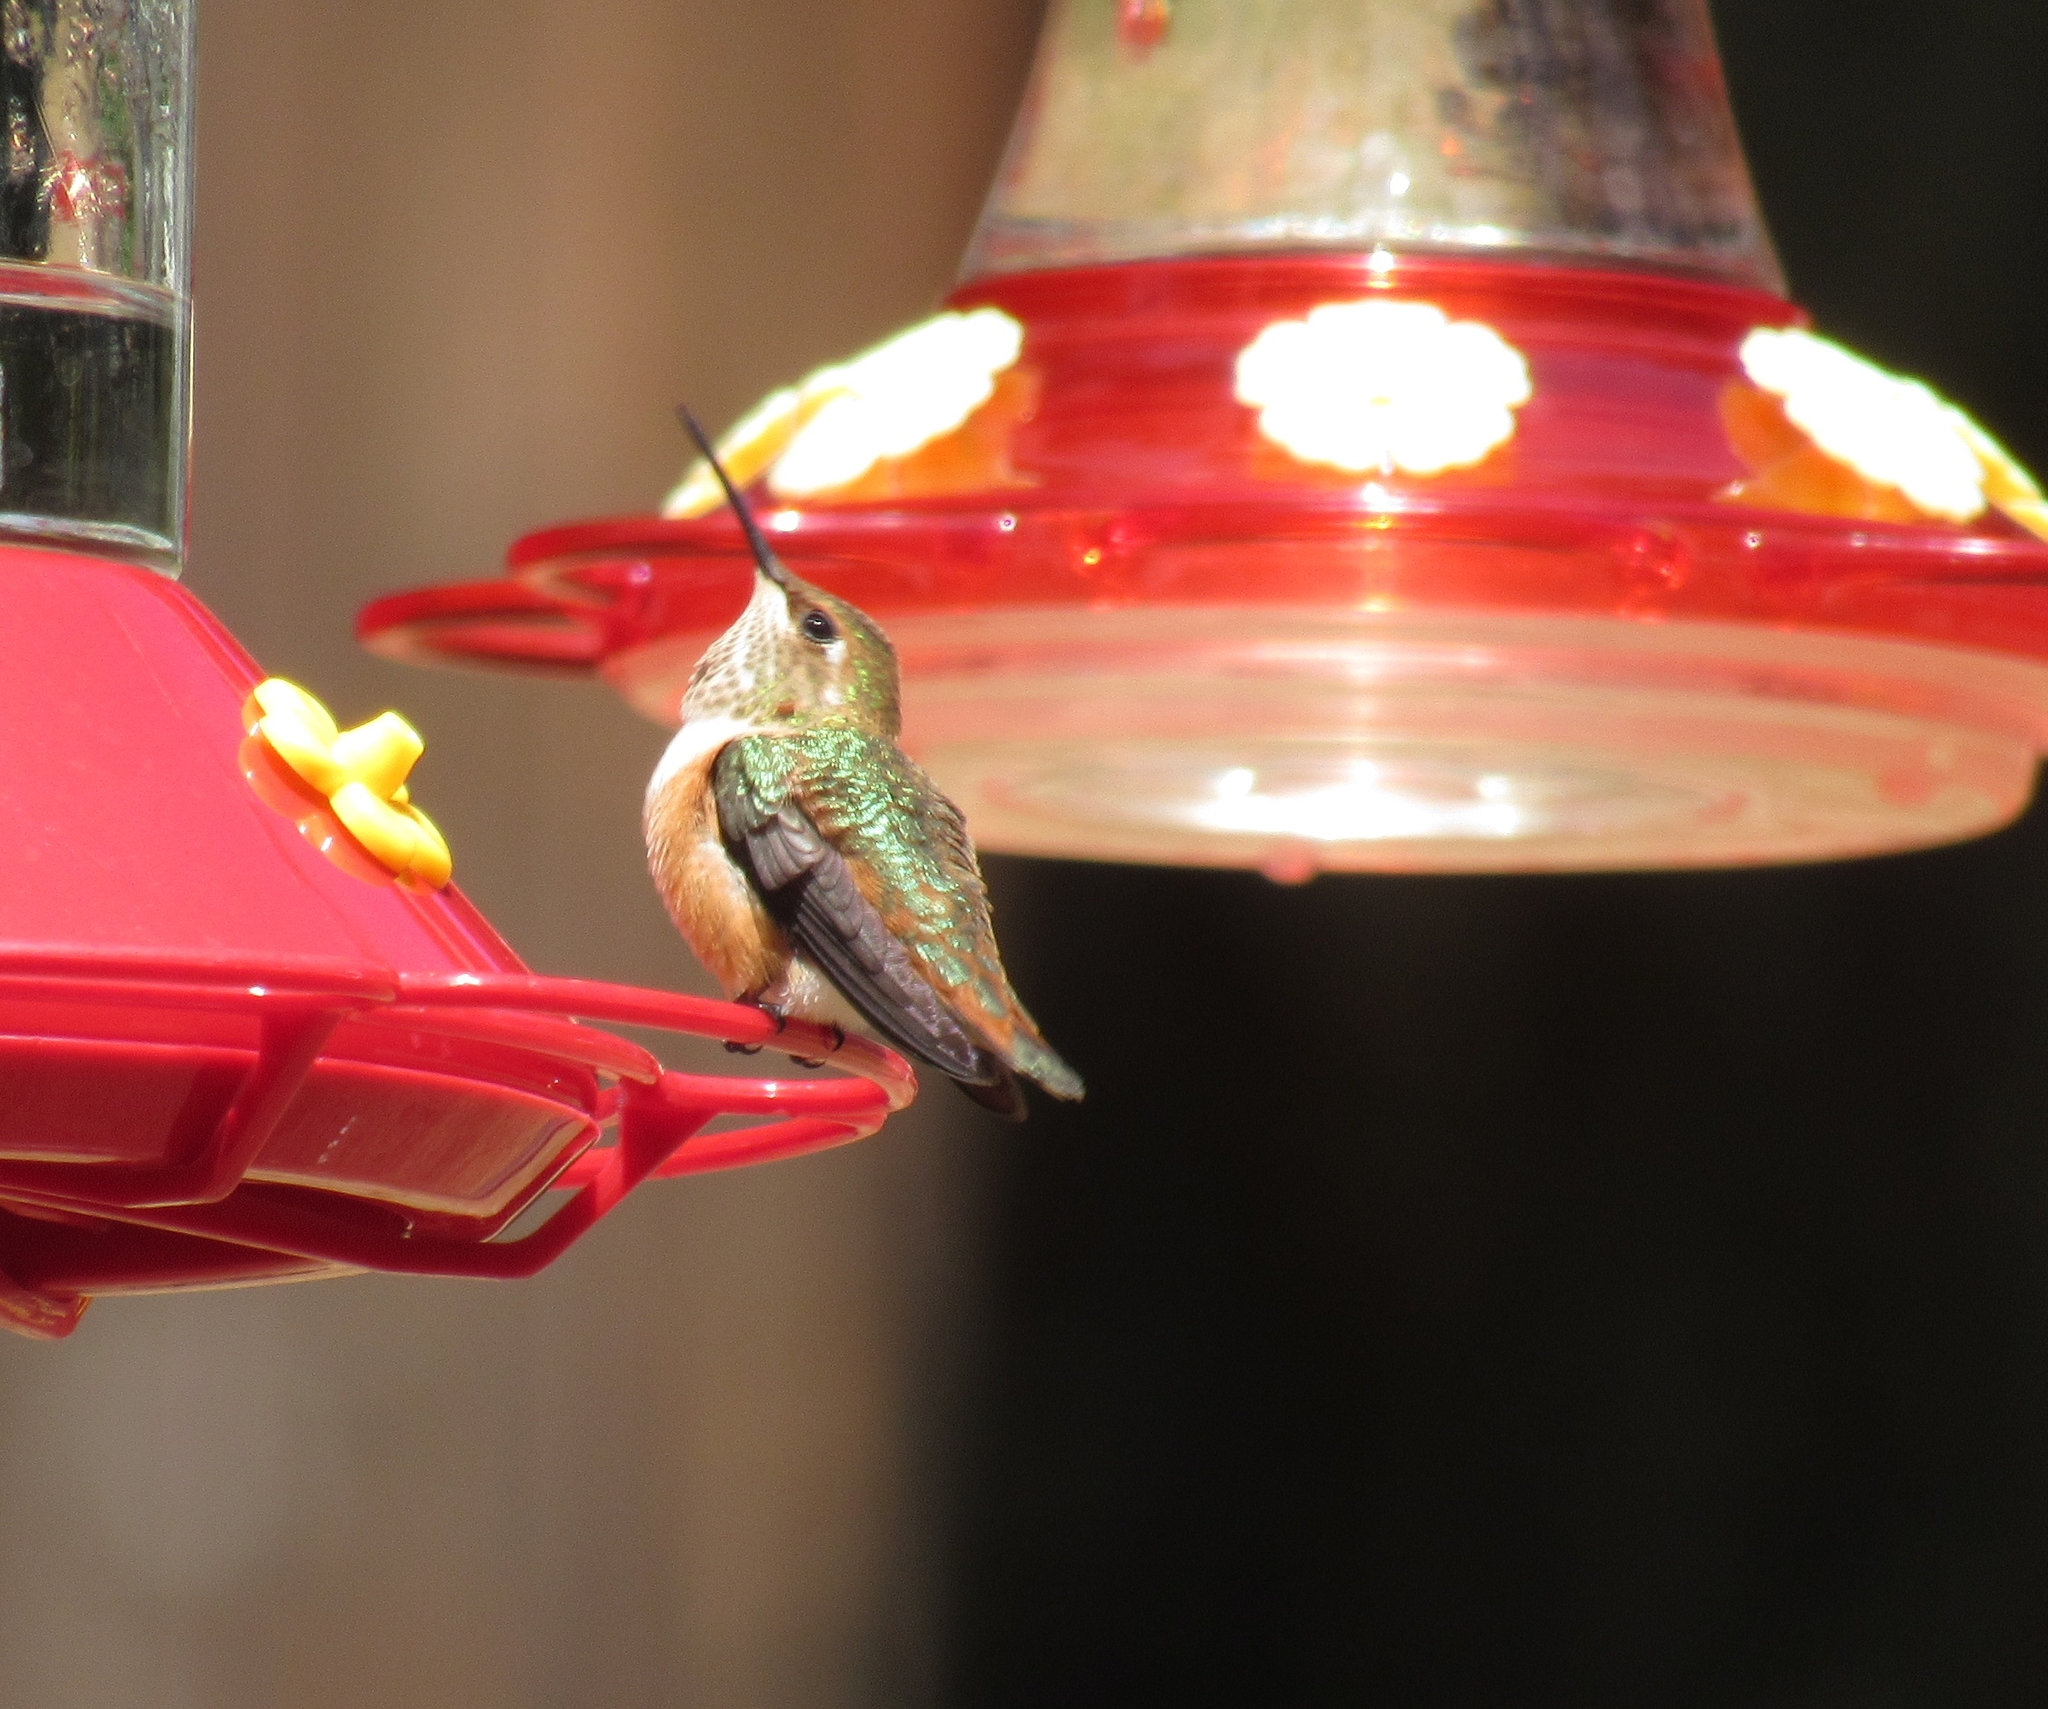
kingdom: Animalia
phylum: Chordata
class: Aves
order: Apodiformes
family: Trochilidae
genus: Selasphorus
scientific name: Selasphorus rufus
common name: Rufous hummingbird
